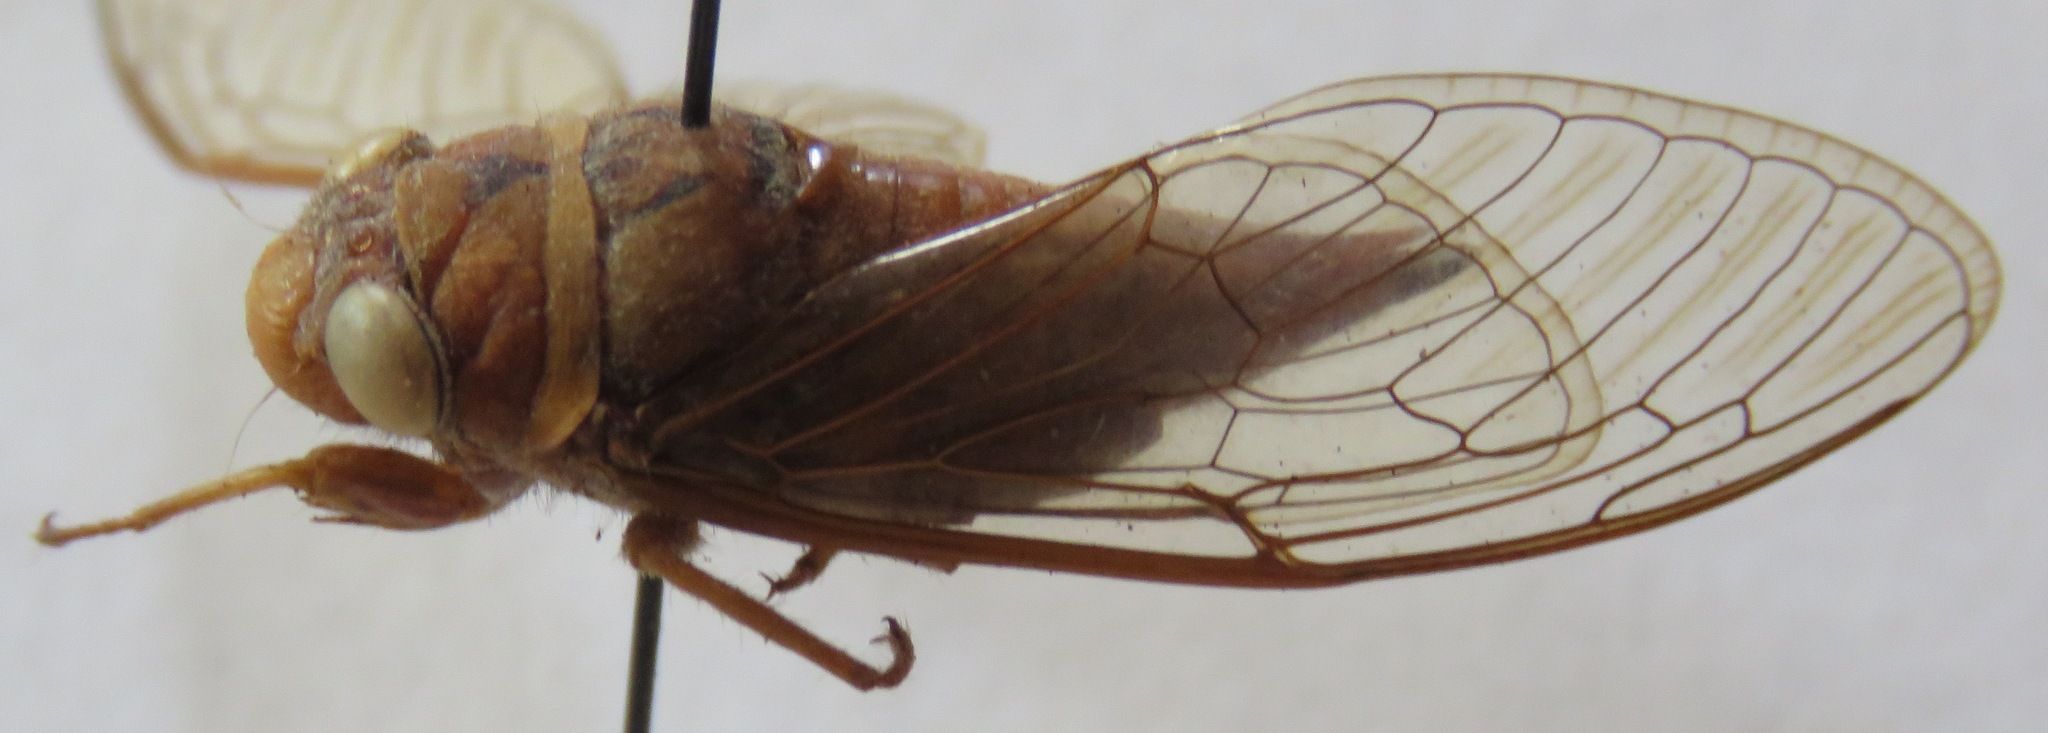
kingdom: Animalia
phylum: Arthropoda
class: Insecta
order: Hemiptera
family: Cicadidae
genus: Carineta
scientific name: Carineta cinara
